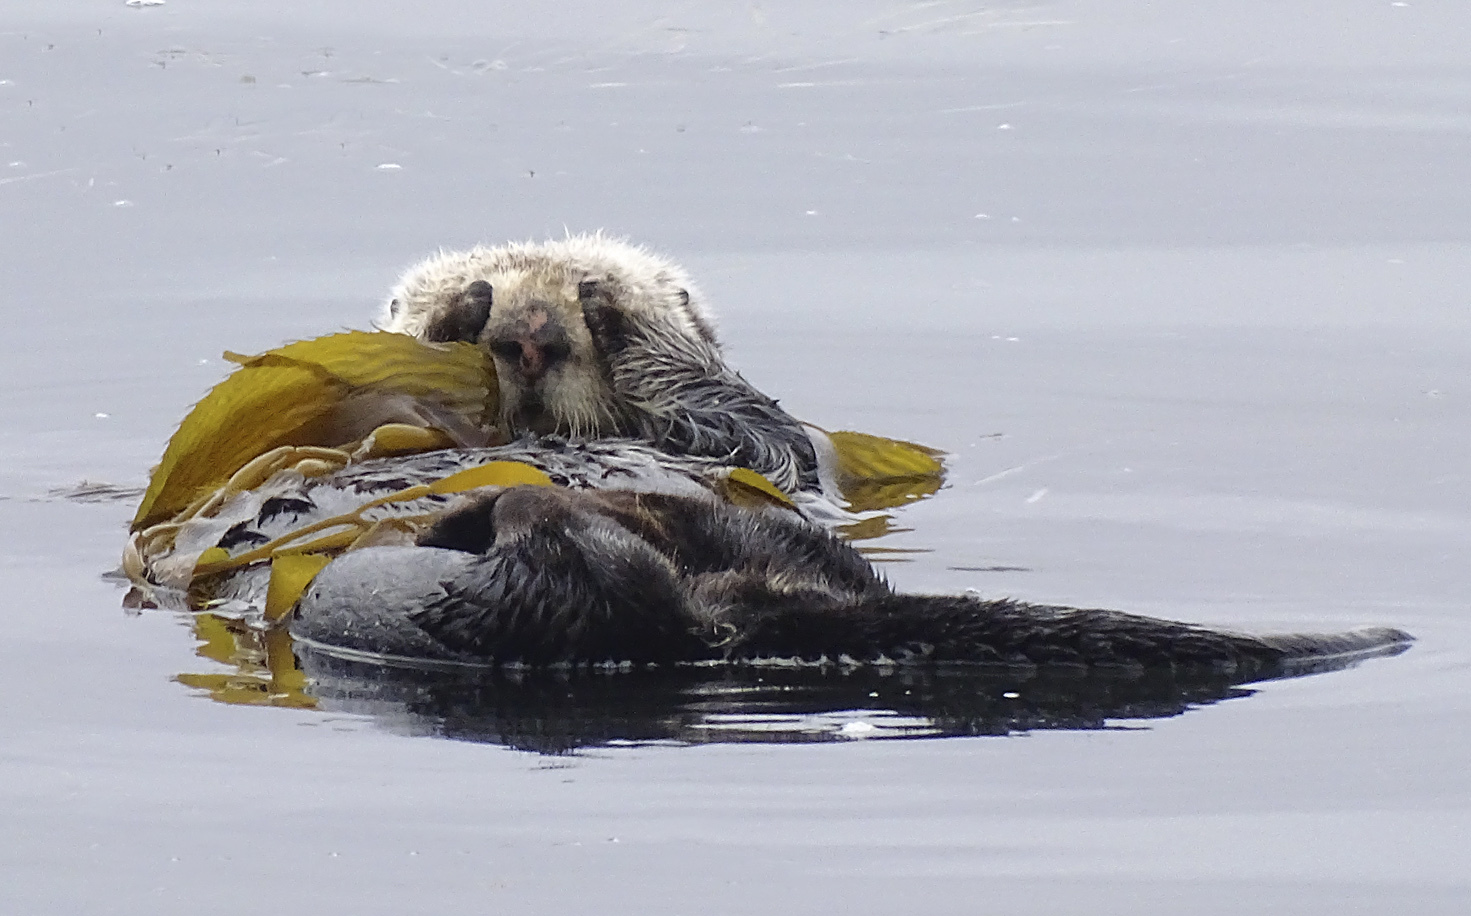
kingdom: Animalia
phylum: Chordata
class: Mammalia
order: Carnivora
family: Mustelidae
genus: Enhydra
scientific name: Enhydra lutris
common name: Sea otter
